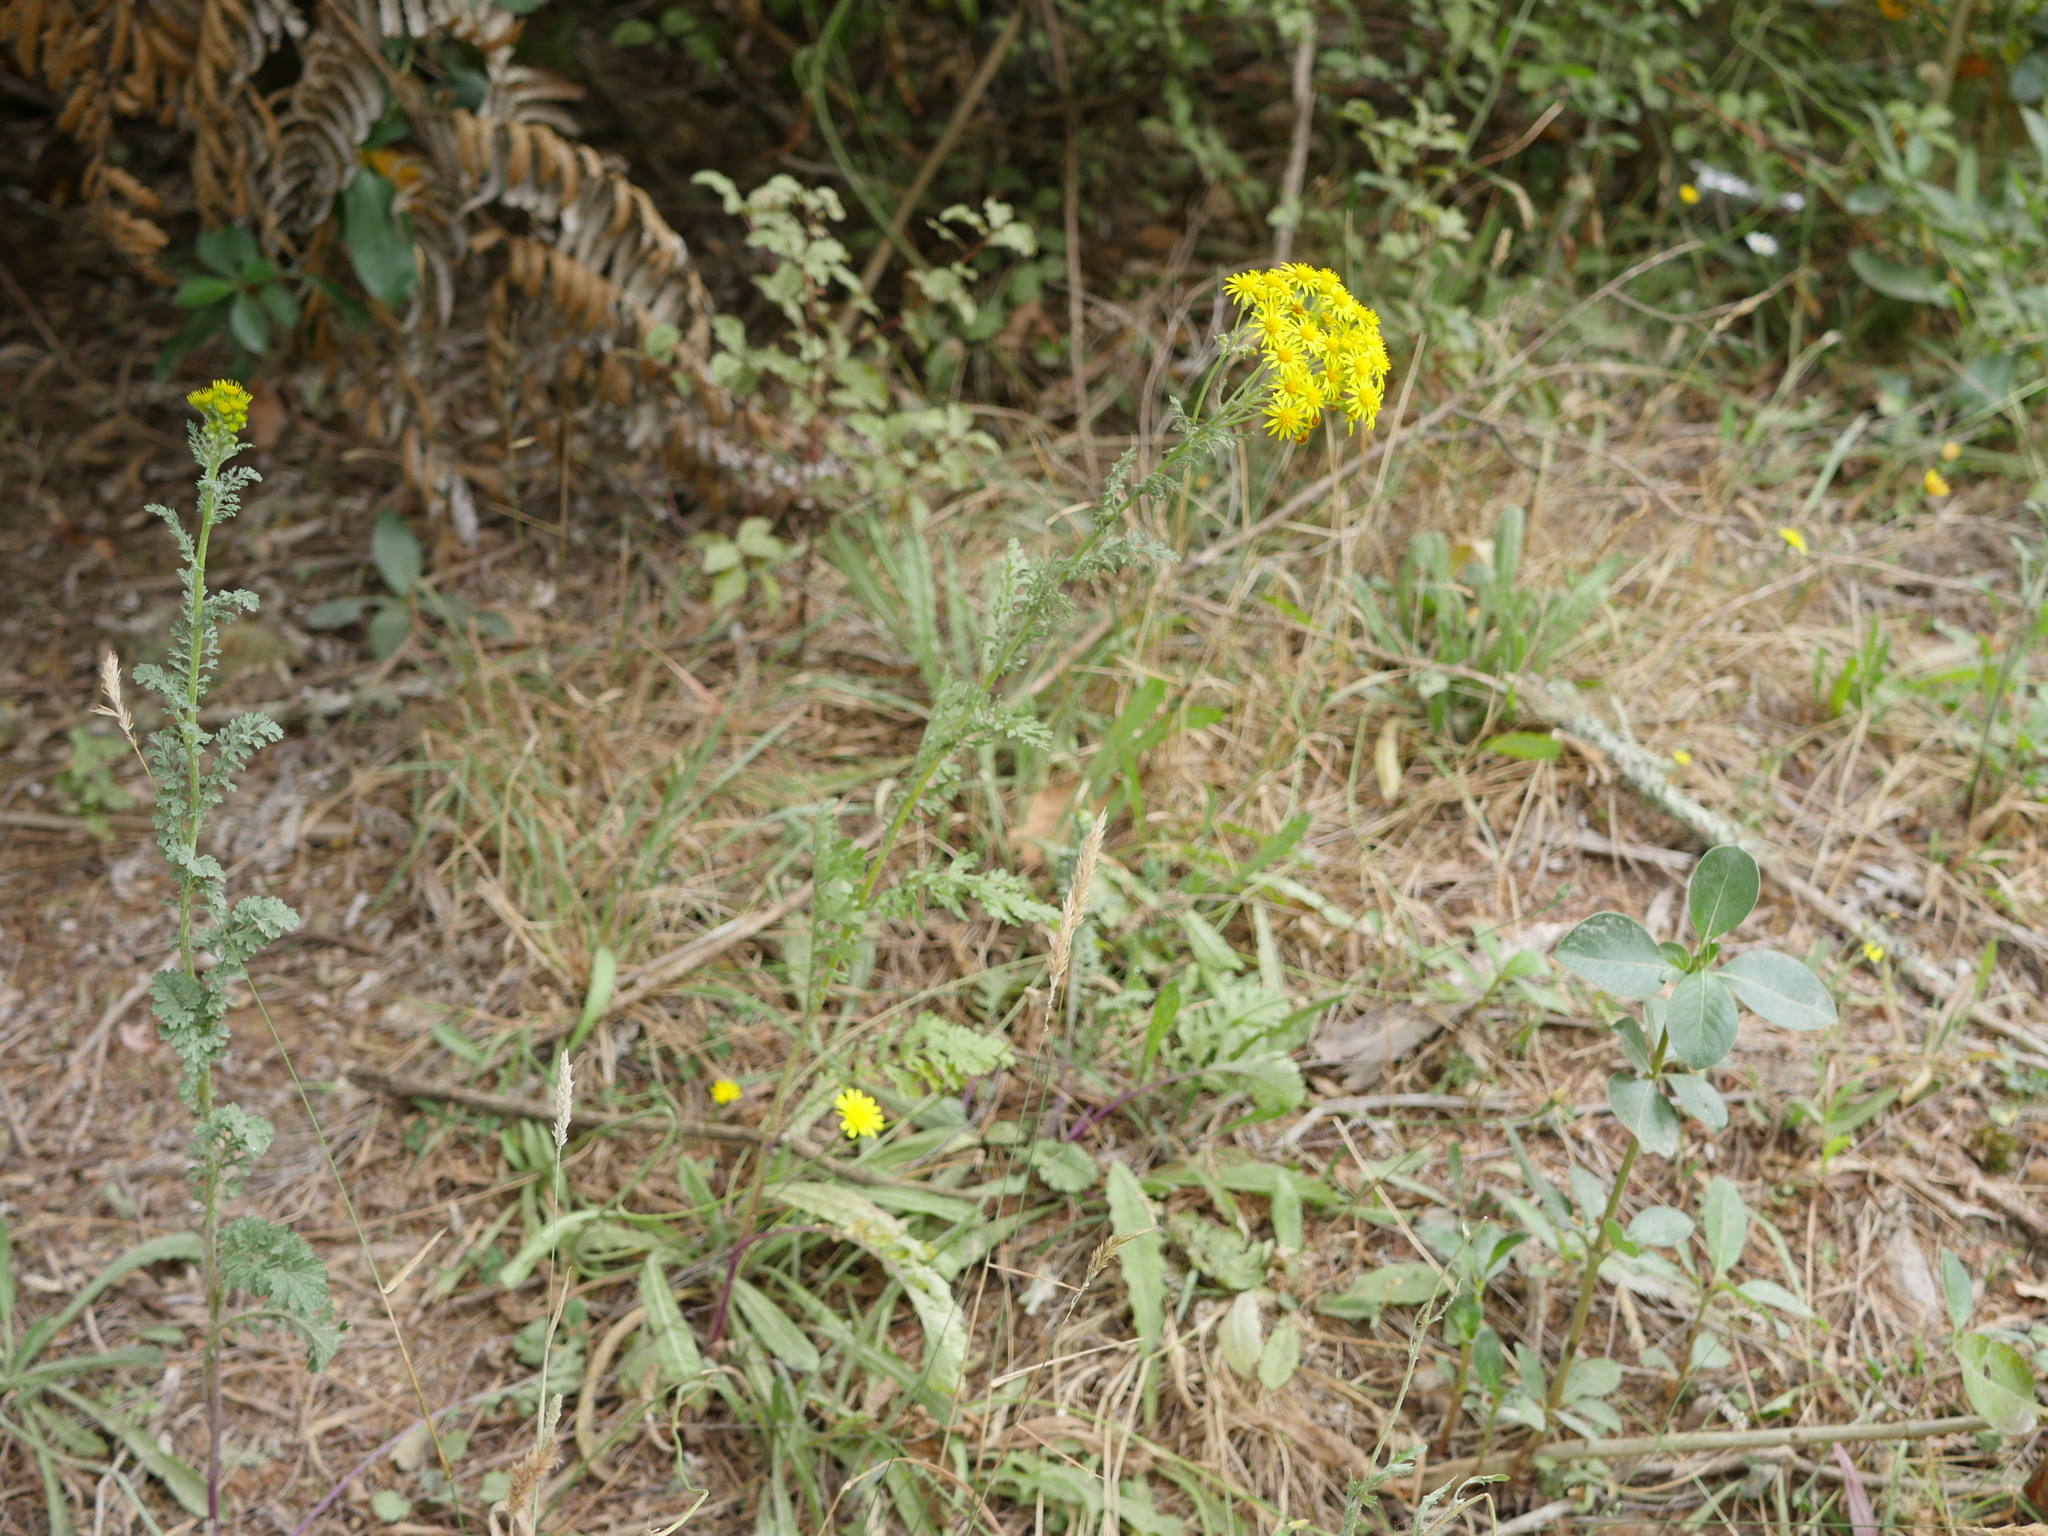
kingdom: Plantae
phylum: Tracheophyta
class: Magnoliopsida
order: Asterales
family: Asteraceae
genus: Jacobaea
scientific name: Jacobaea vulgaris
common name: Stinking willie
